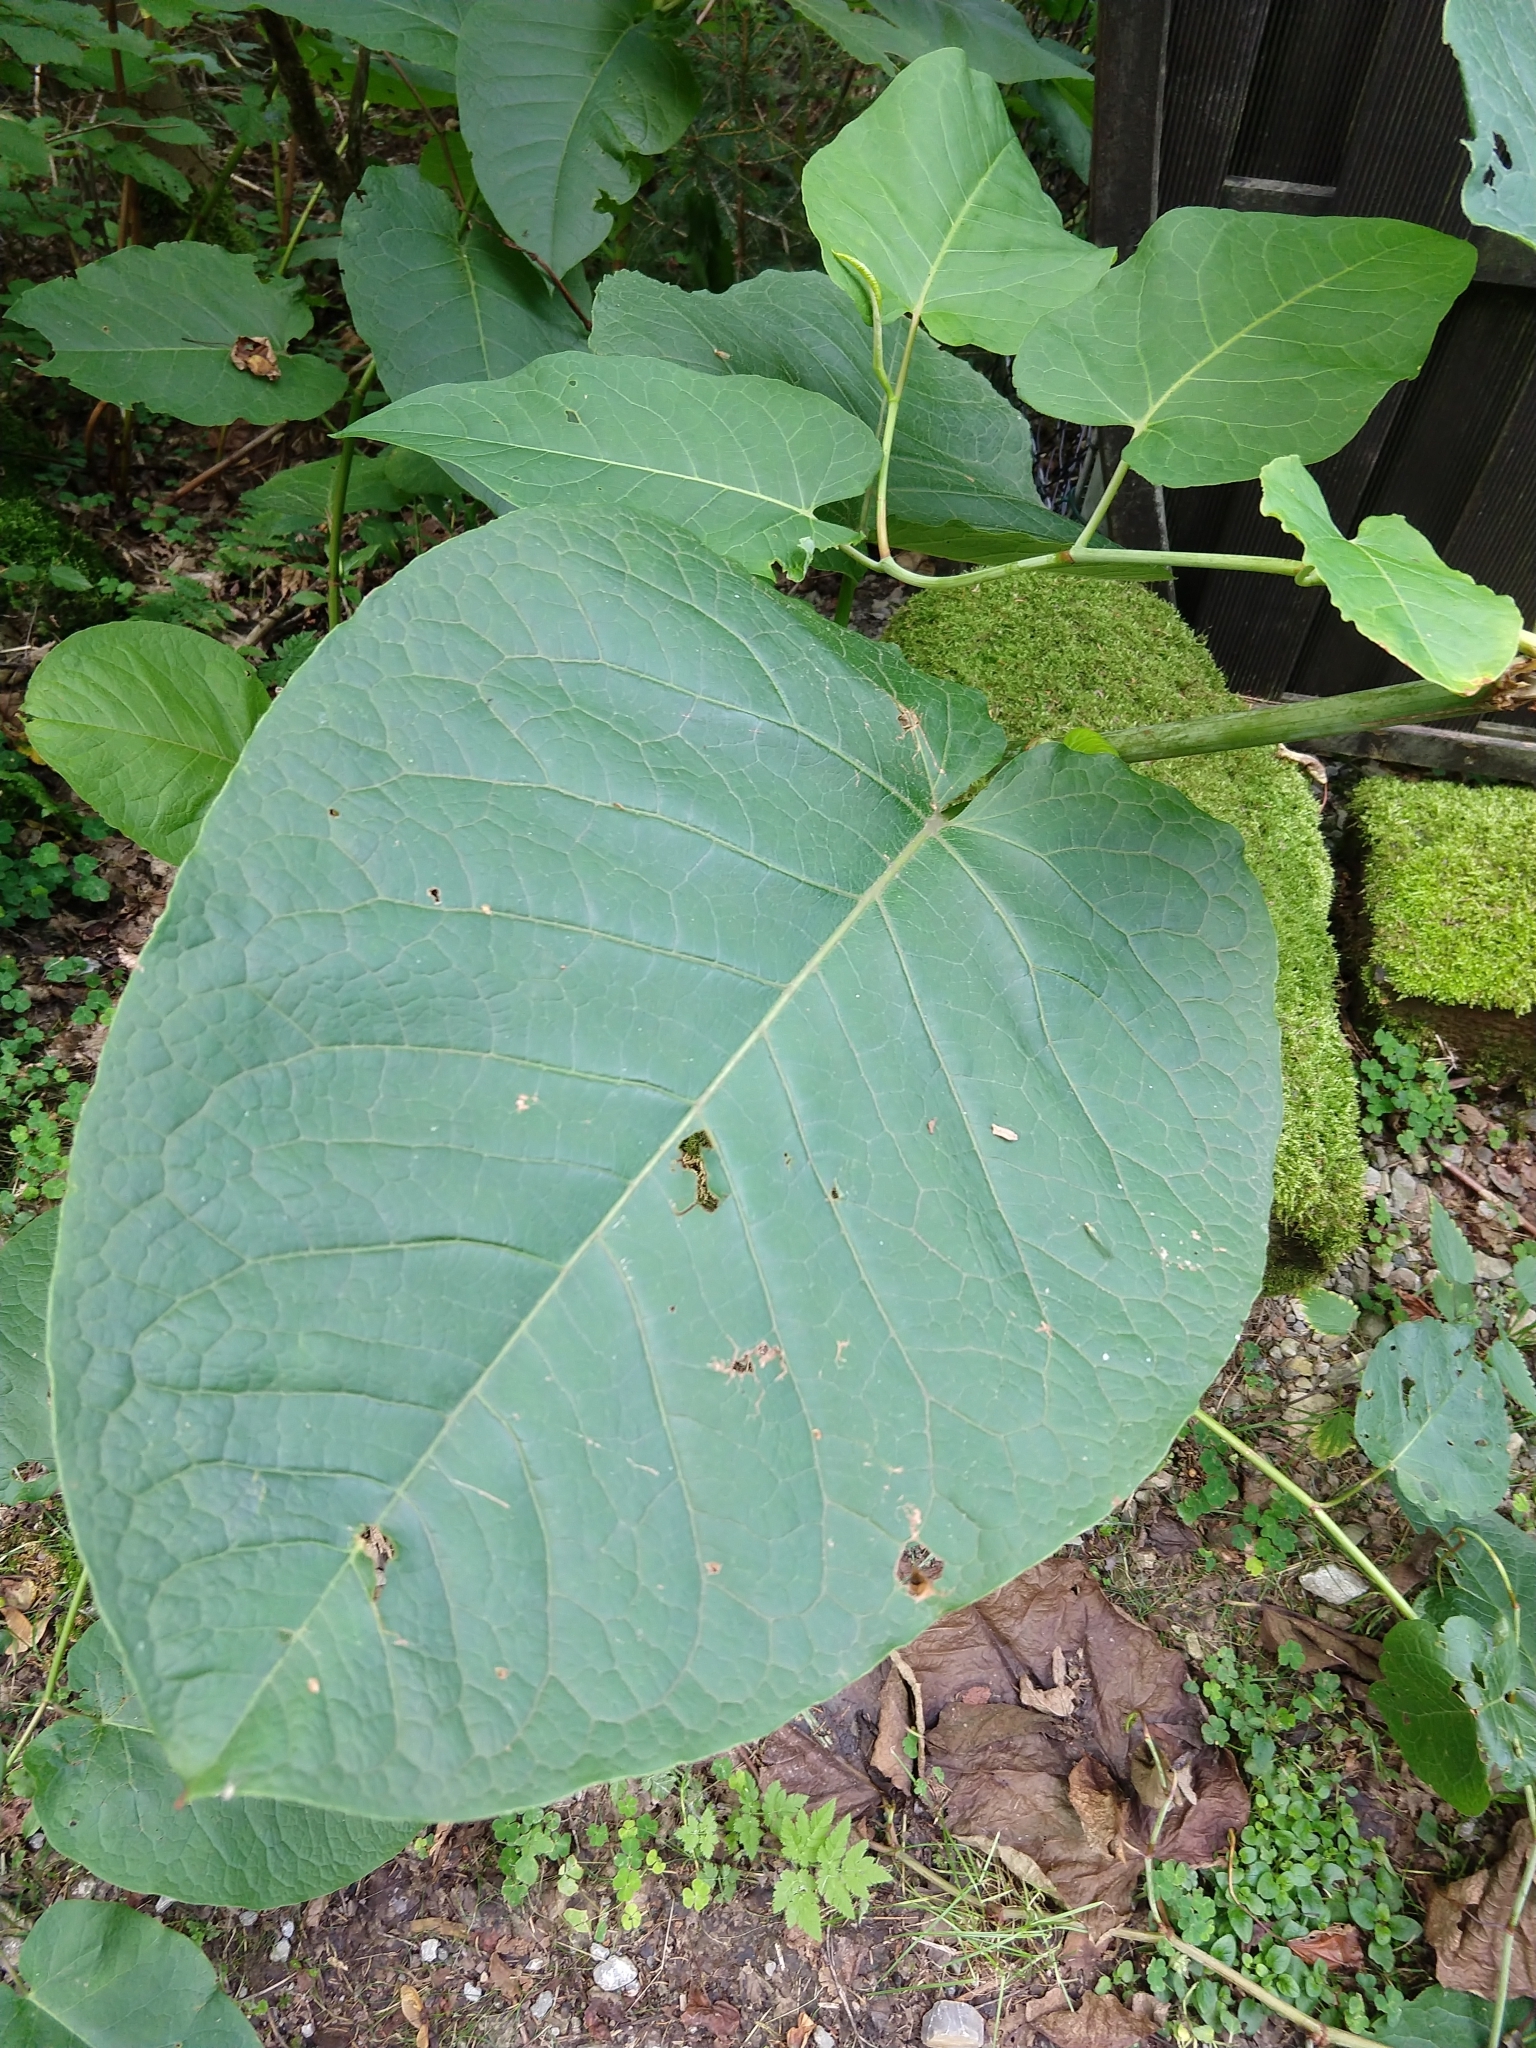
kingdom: Plantae
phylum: Tracheophyta
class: Magnoliopsida
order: Caryophyllales
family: Polygonaceae
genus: Reynoutria
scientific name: Reynoutria sachalinensis
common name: Giant knotweed
